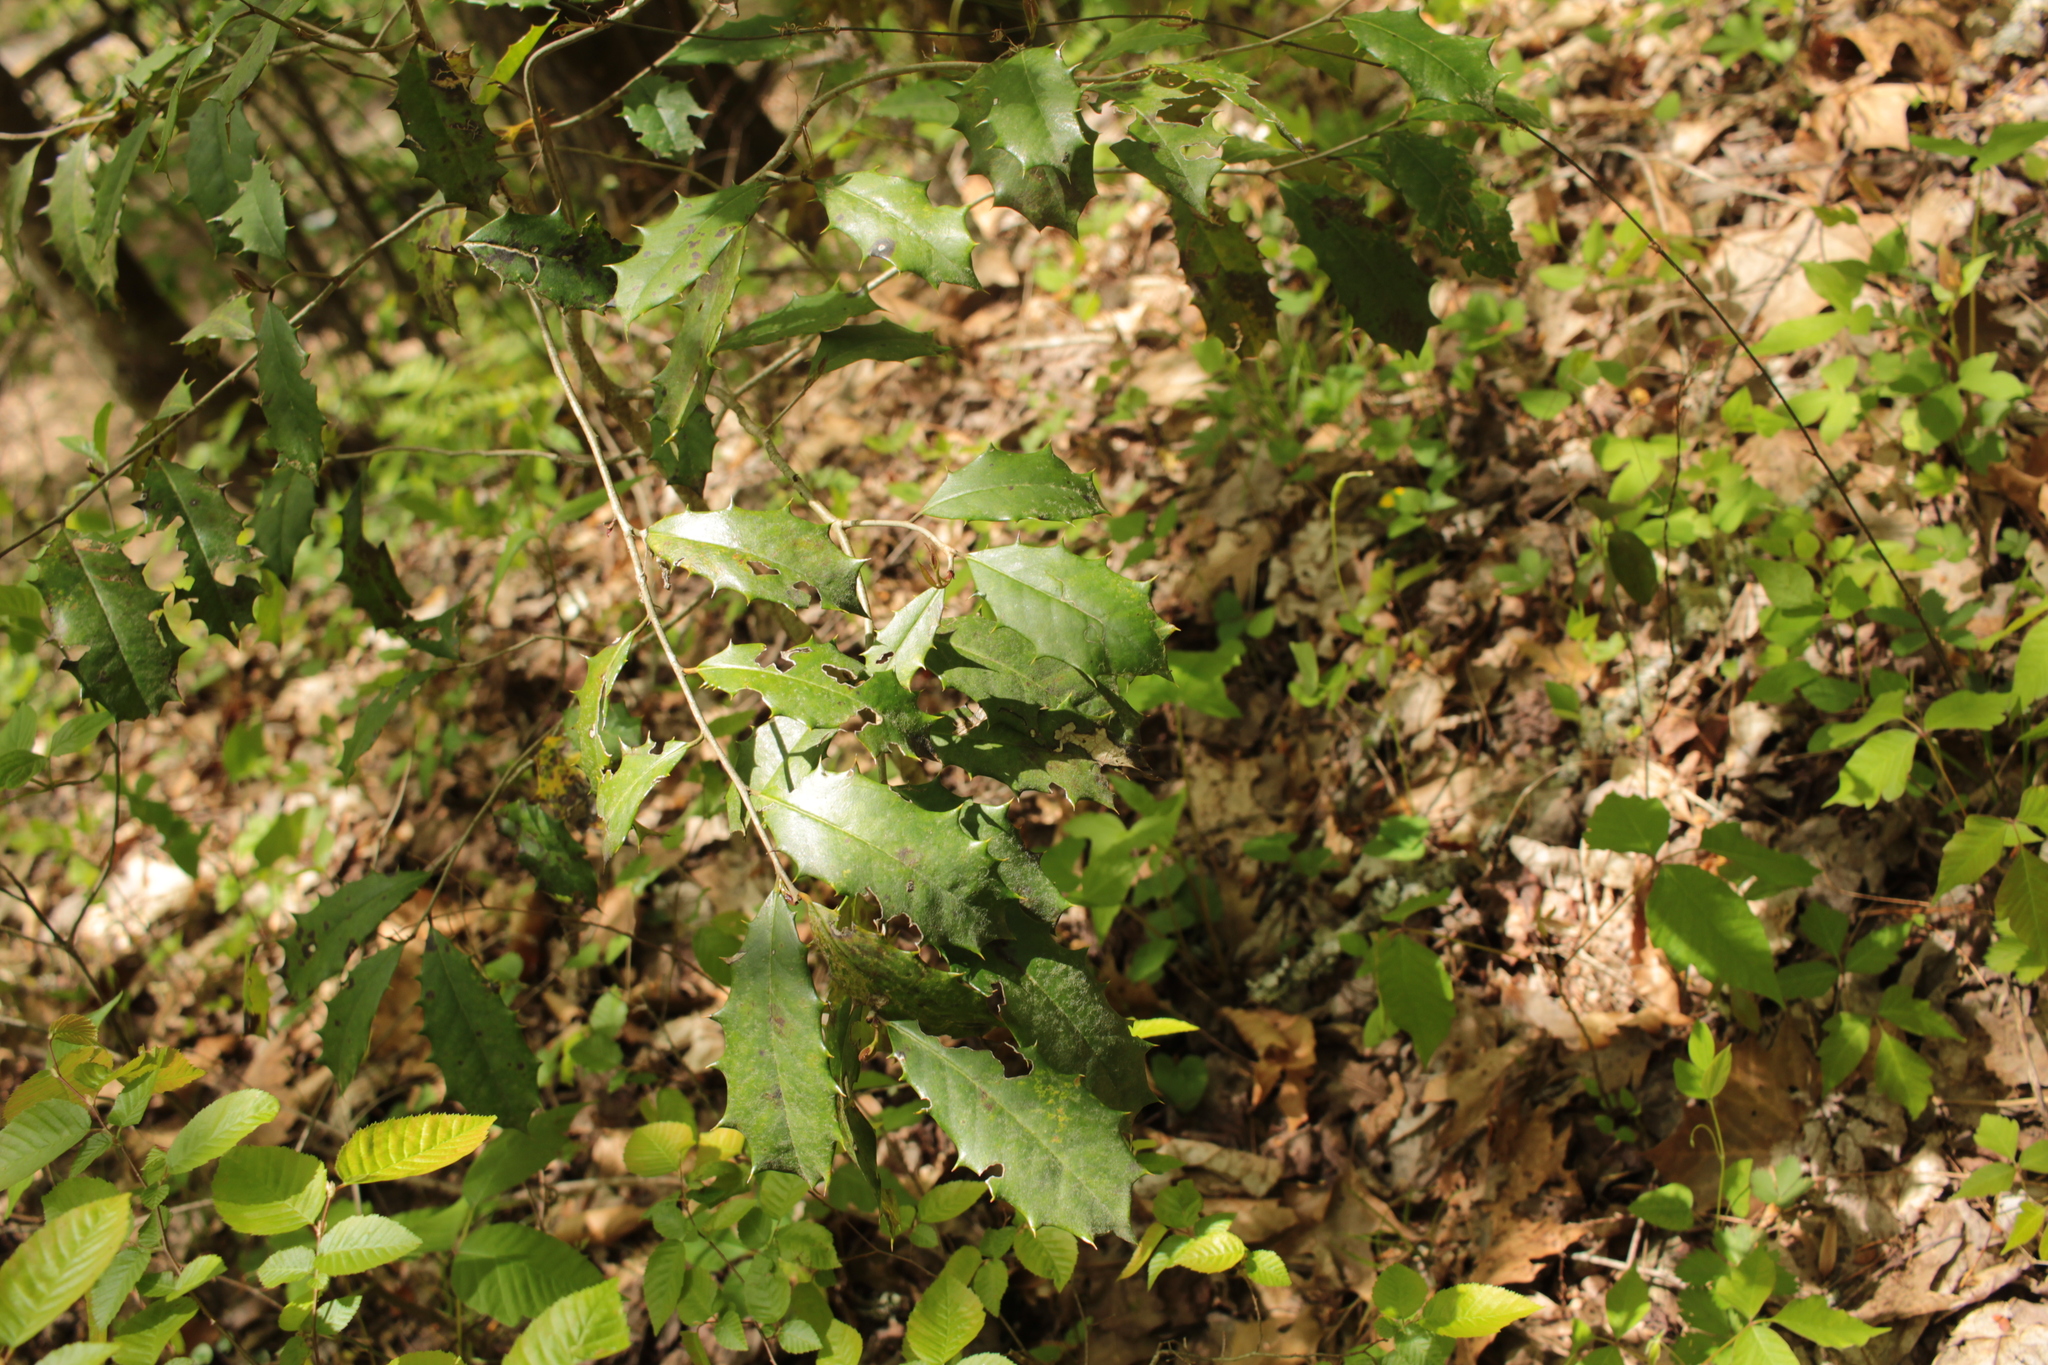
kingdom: Plantae
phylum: Tracheophyta
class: Magnoliopsida
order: Aquifoliales
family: Aquifoliaceae
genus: Ilex
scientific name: Ilex opaca
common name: American holly
